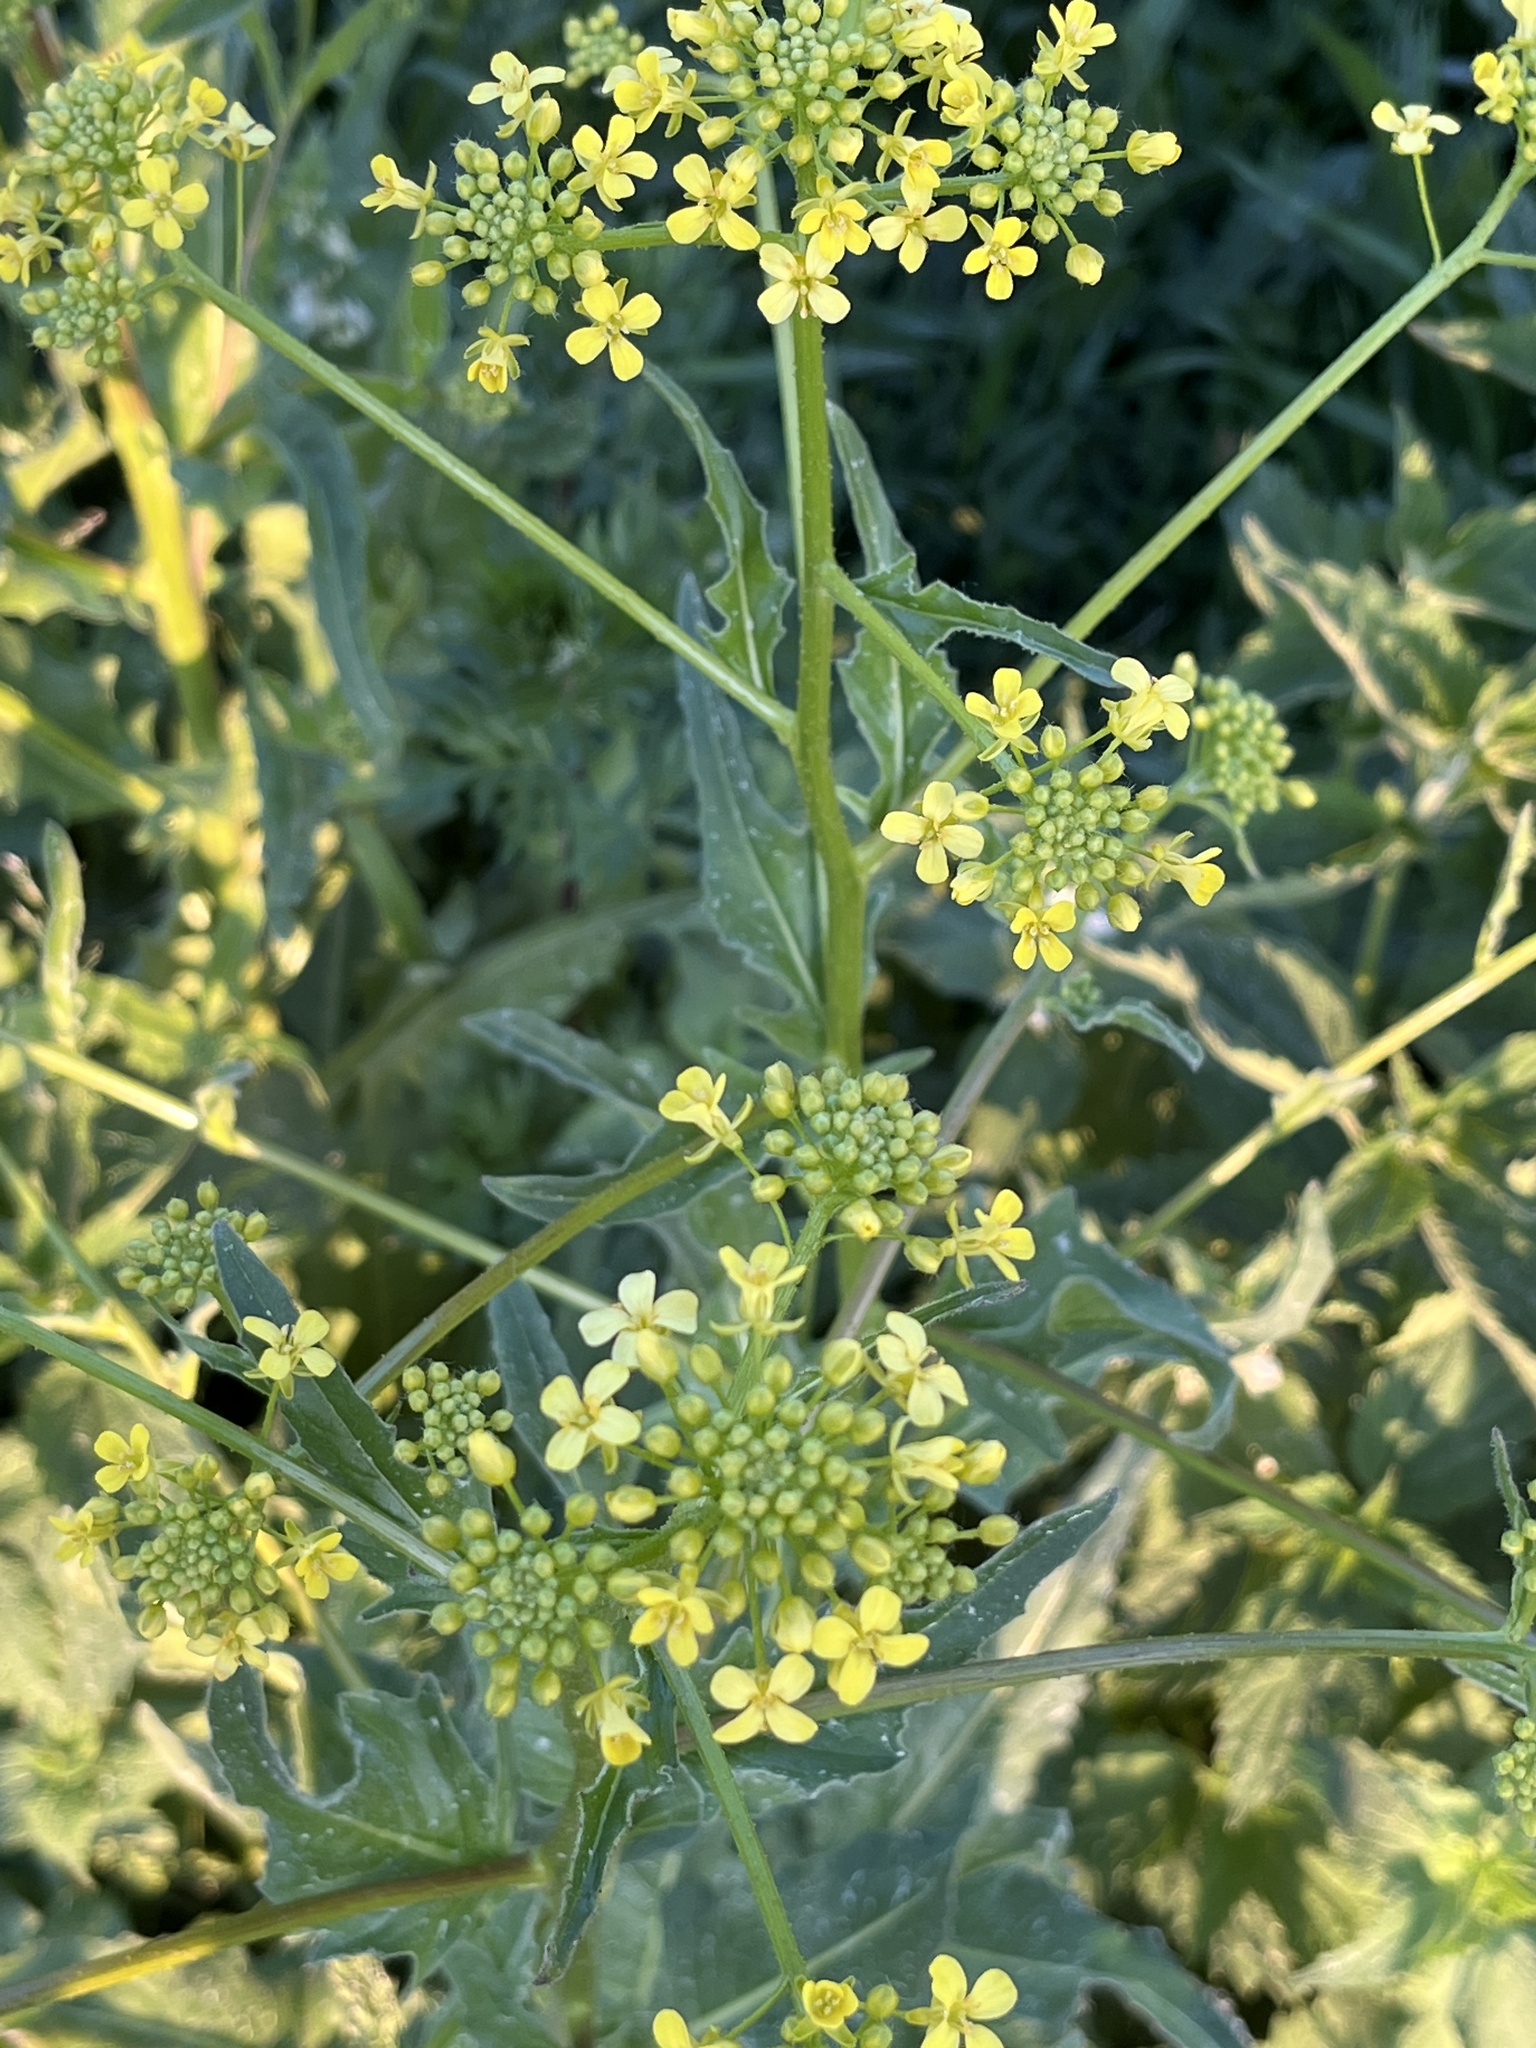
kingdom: Plantae
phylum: Tracheophyta
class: Magnoliopsida
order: Brassicales
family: Brassicaceae
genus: Bunias
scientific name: Bunias orientalis
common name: Warty-cabbage
